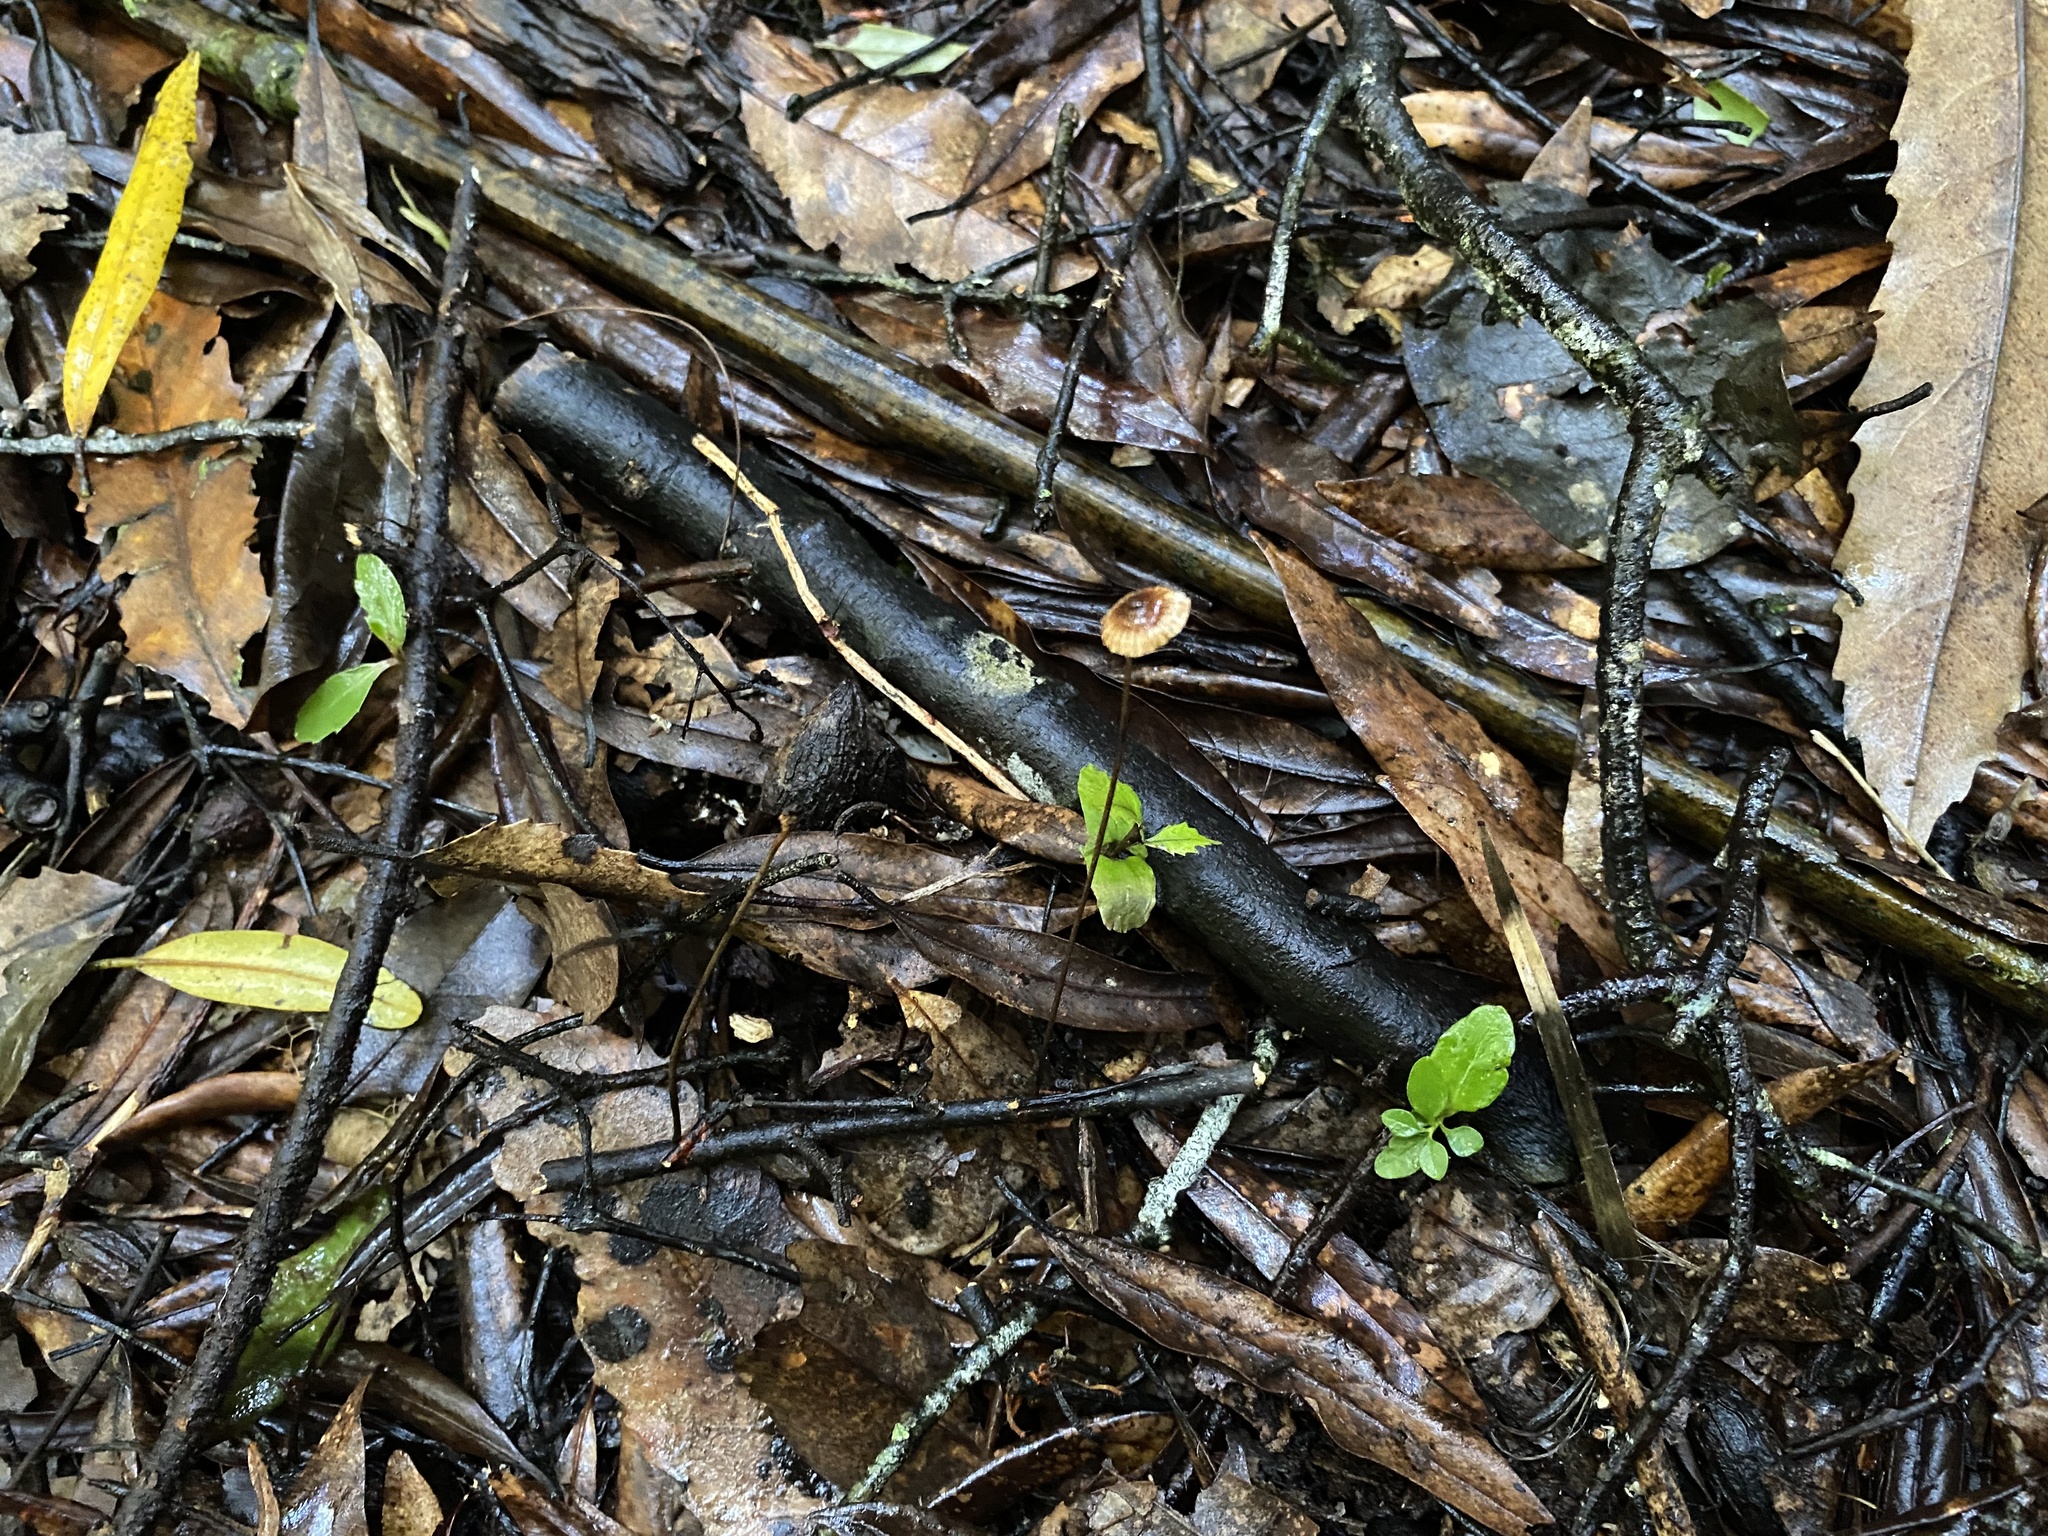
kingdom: Fungi
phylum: Basidiomycota
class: Agaricomycetes
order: Agaricales
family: Marasmiaceae
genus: Crinipellis
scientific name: Crinipellis procera
